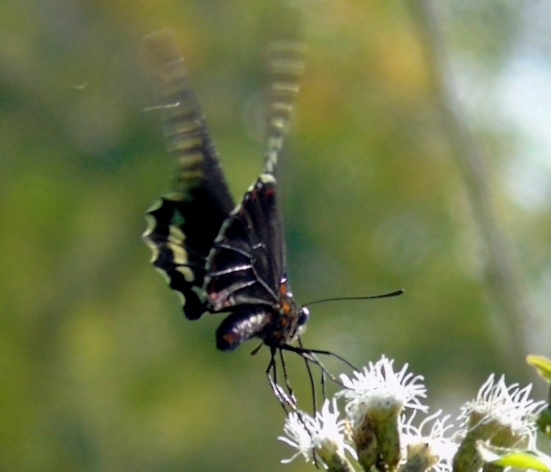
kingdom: Animalia
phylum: Arthropoda
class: Insecta
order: Lepidoptera
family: Papilionidae
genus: Battus
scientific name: Battus polydamas
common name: Polydamas swallowtail
